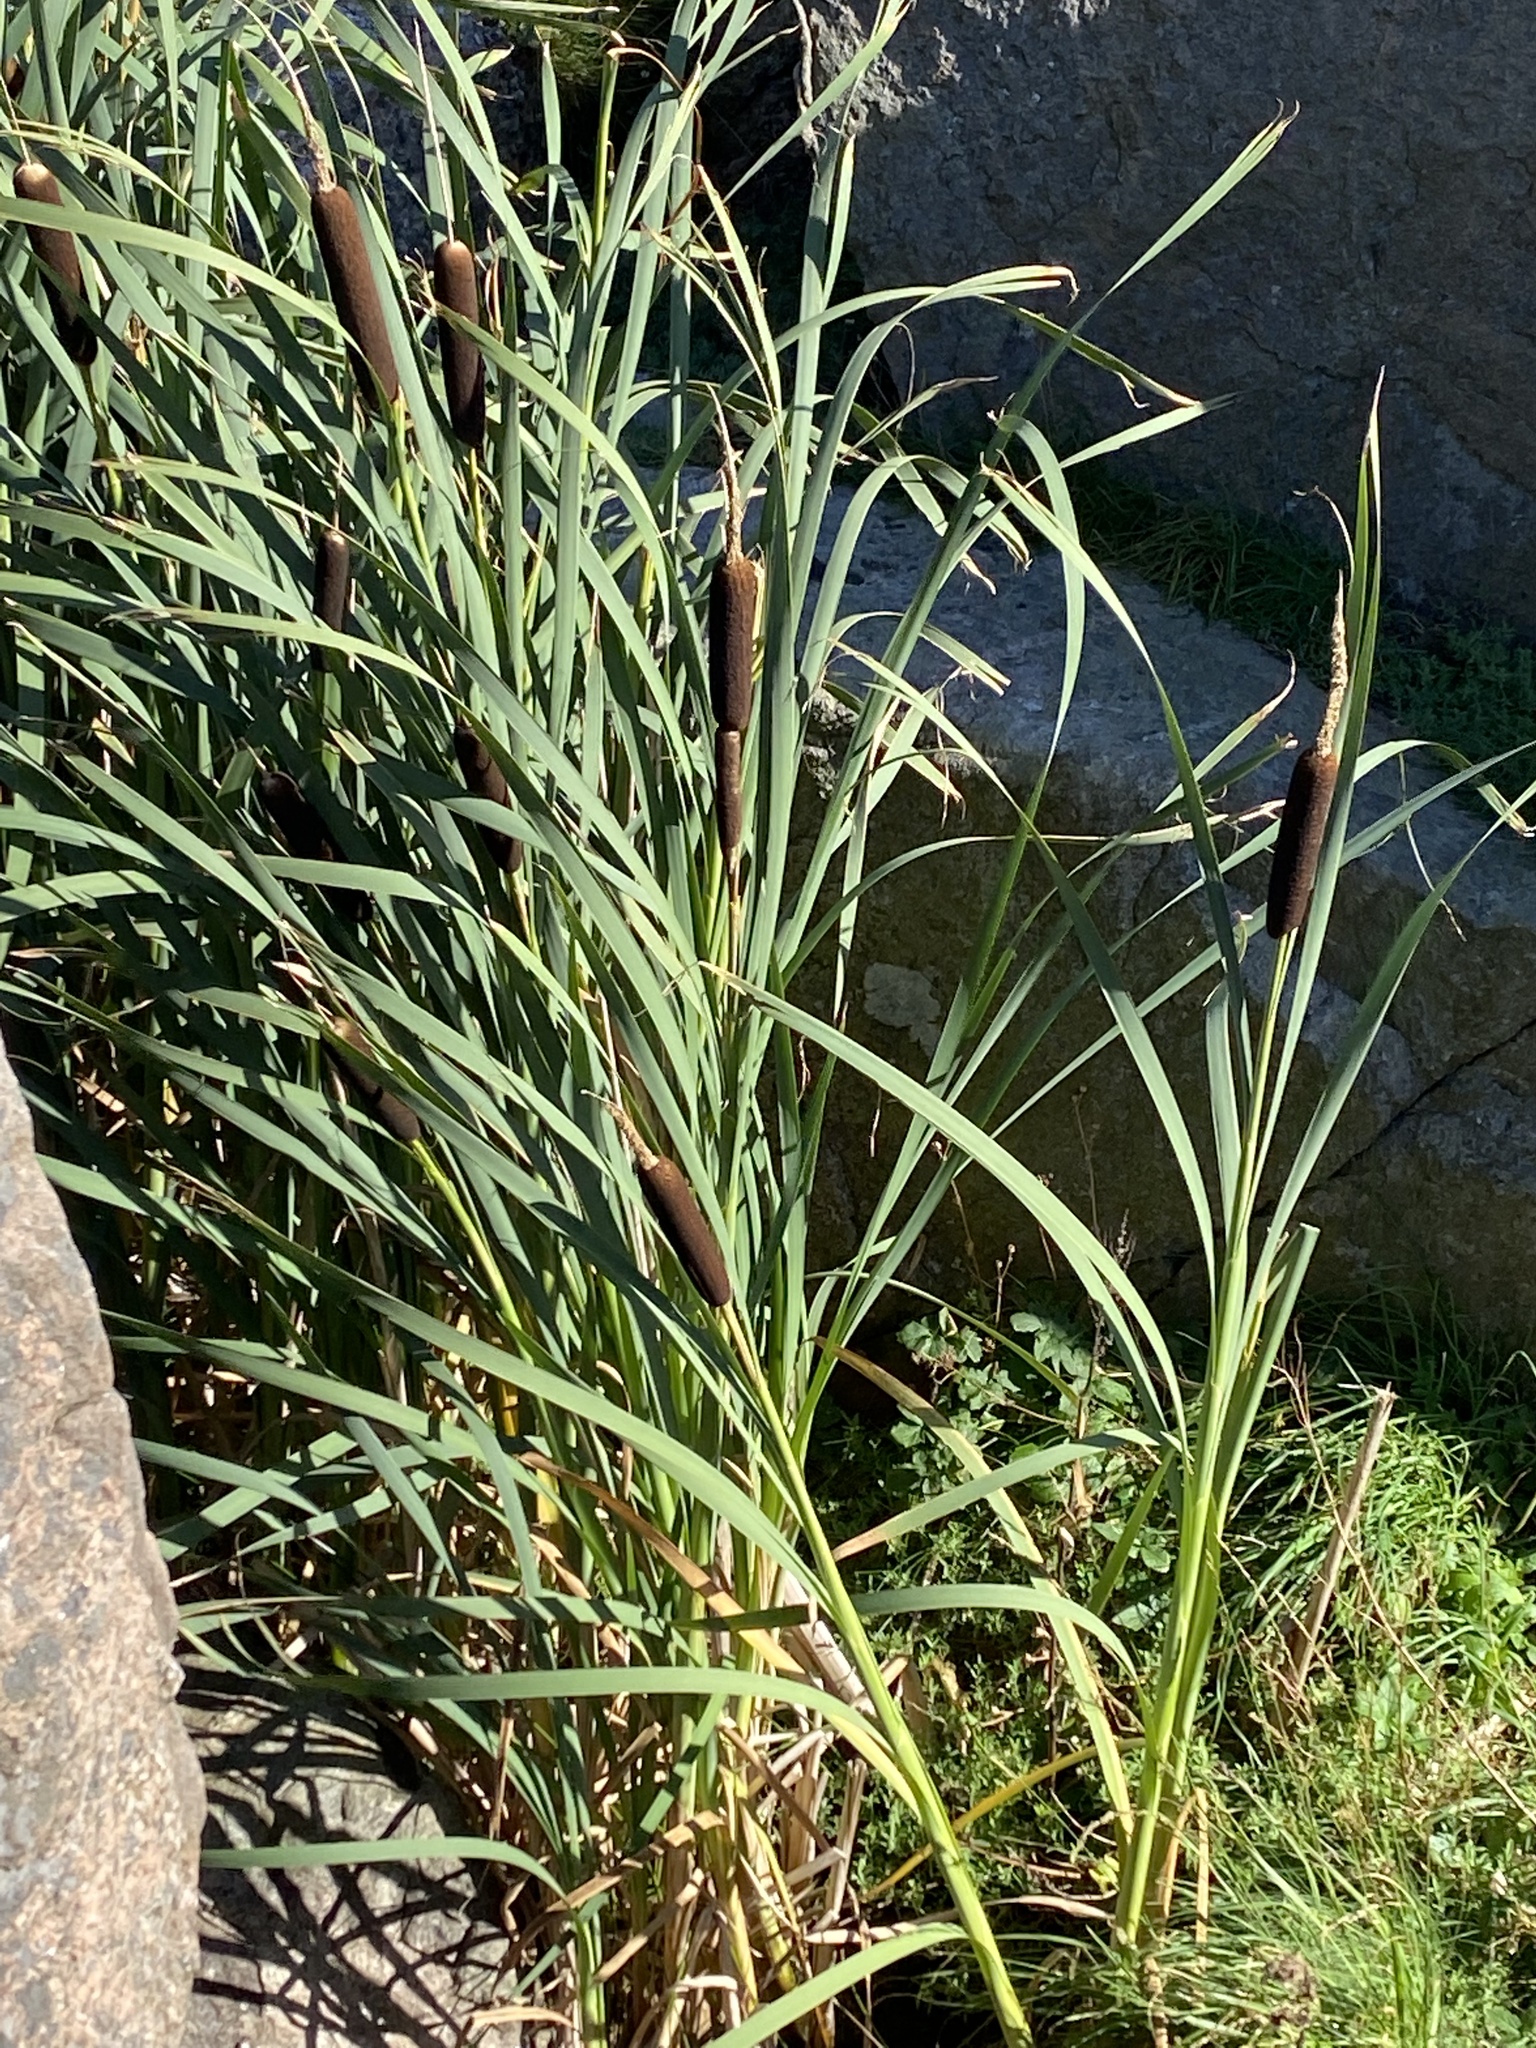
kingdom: Plantae
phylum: Tracheophyta
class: Liliopsida
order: Poales
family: Typhaceae
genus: Typha
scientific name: Typha latifolia
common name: Broadleaf cattail
